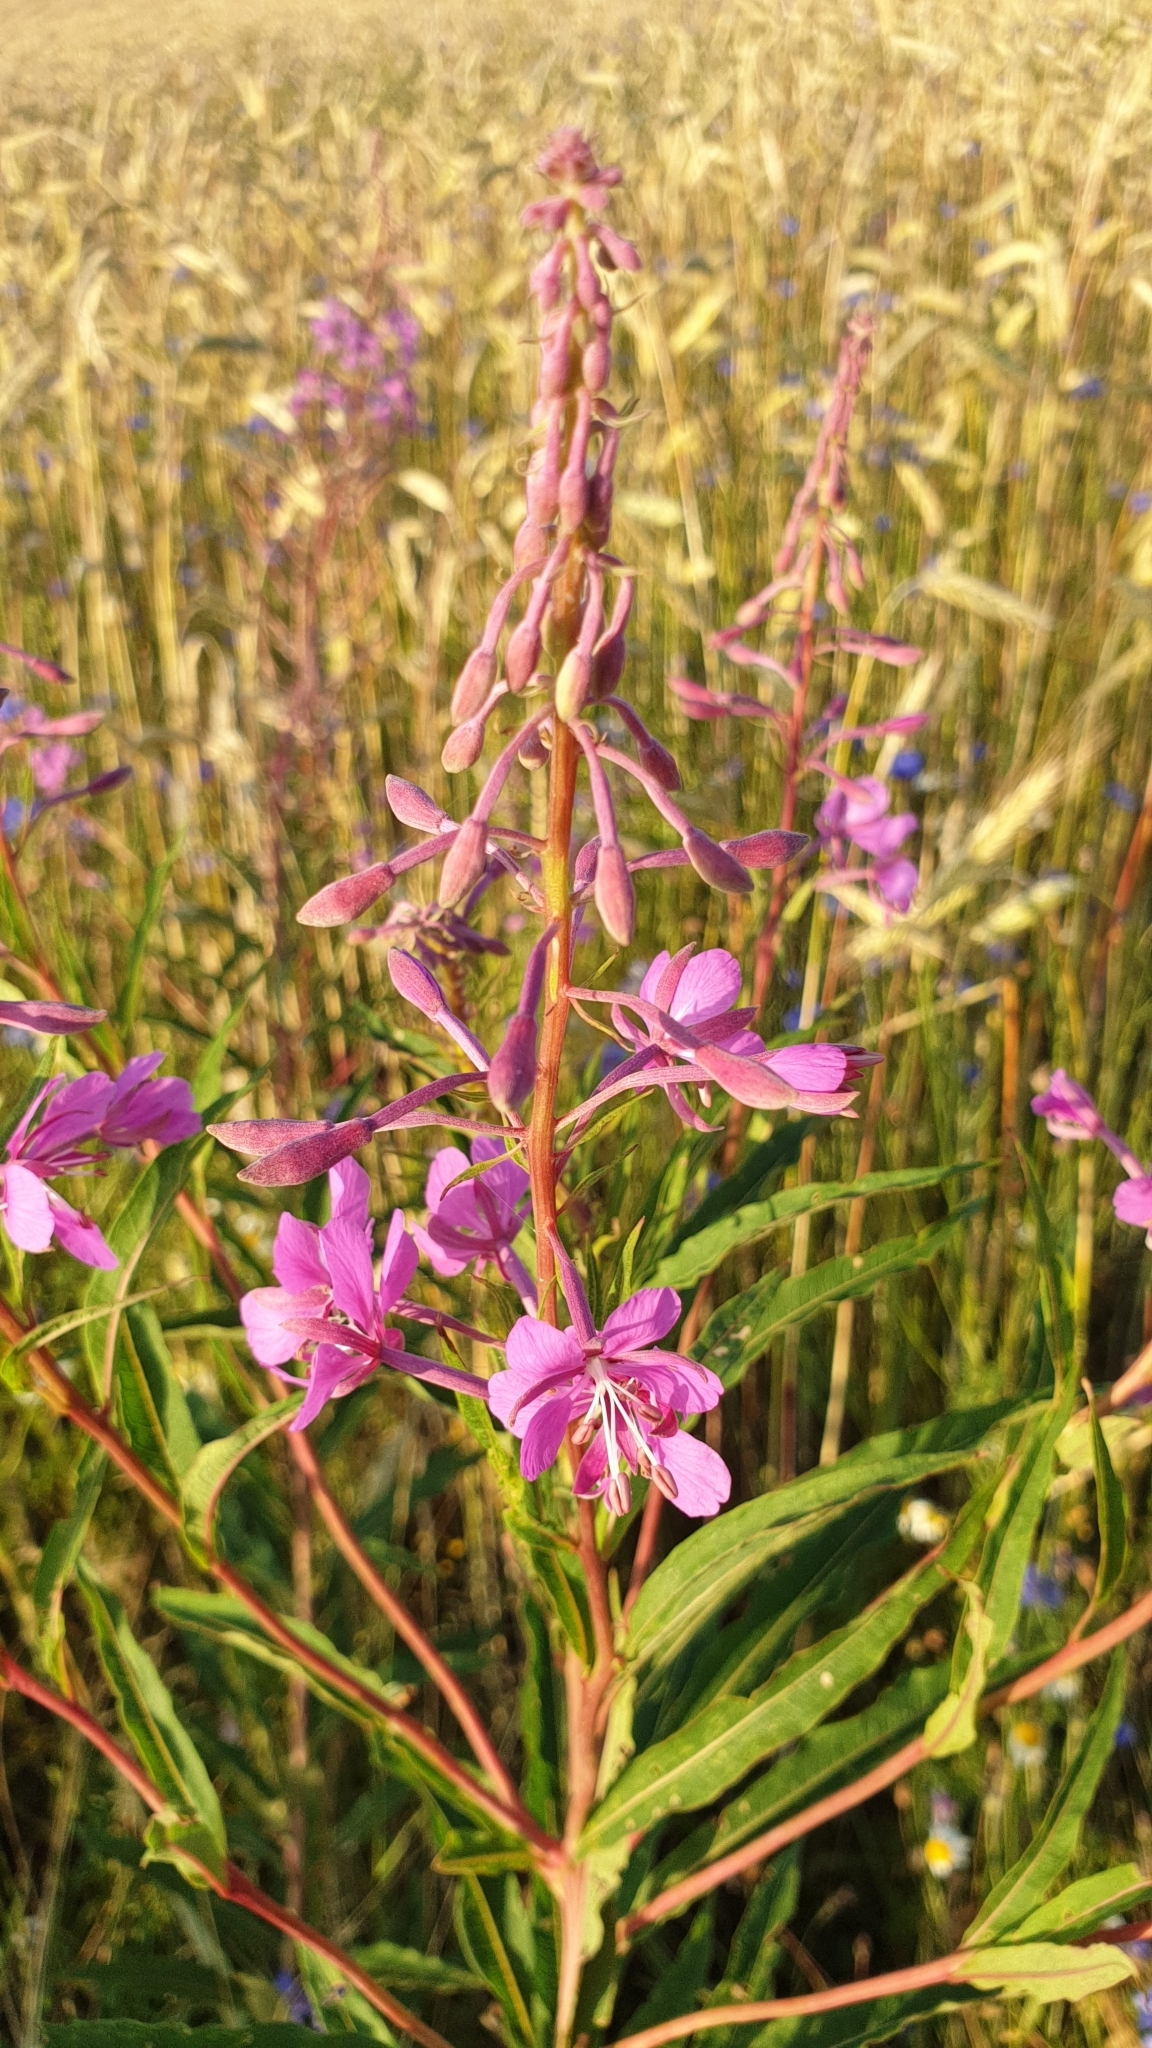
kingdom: Plantae
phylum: Tracheophyta
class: Magnoliopsida
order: Myrtales
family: Onagraceae
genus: Chamaenerion
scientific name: Chamaenerion angustifolium
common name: Fireweed
